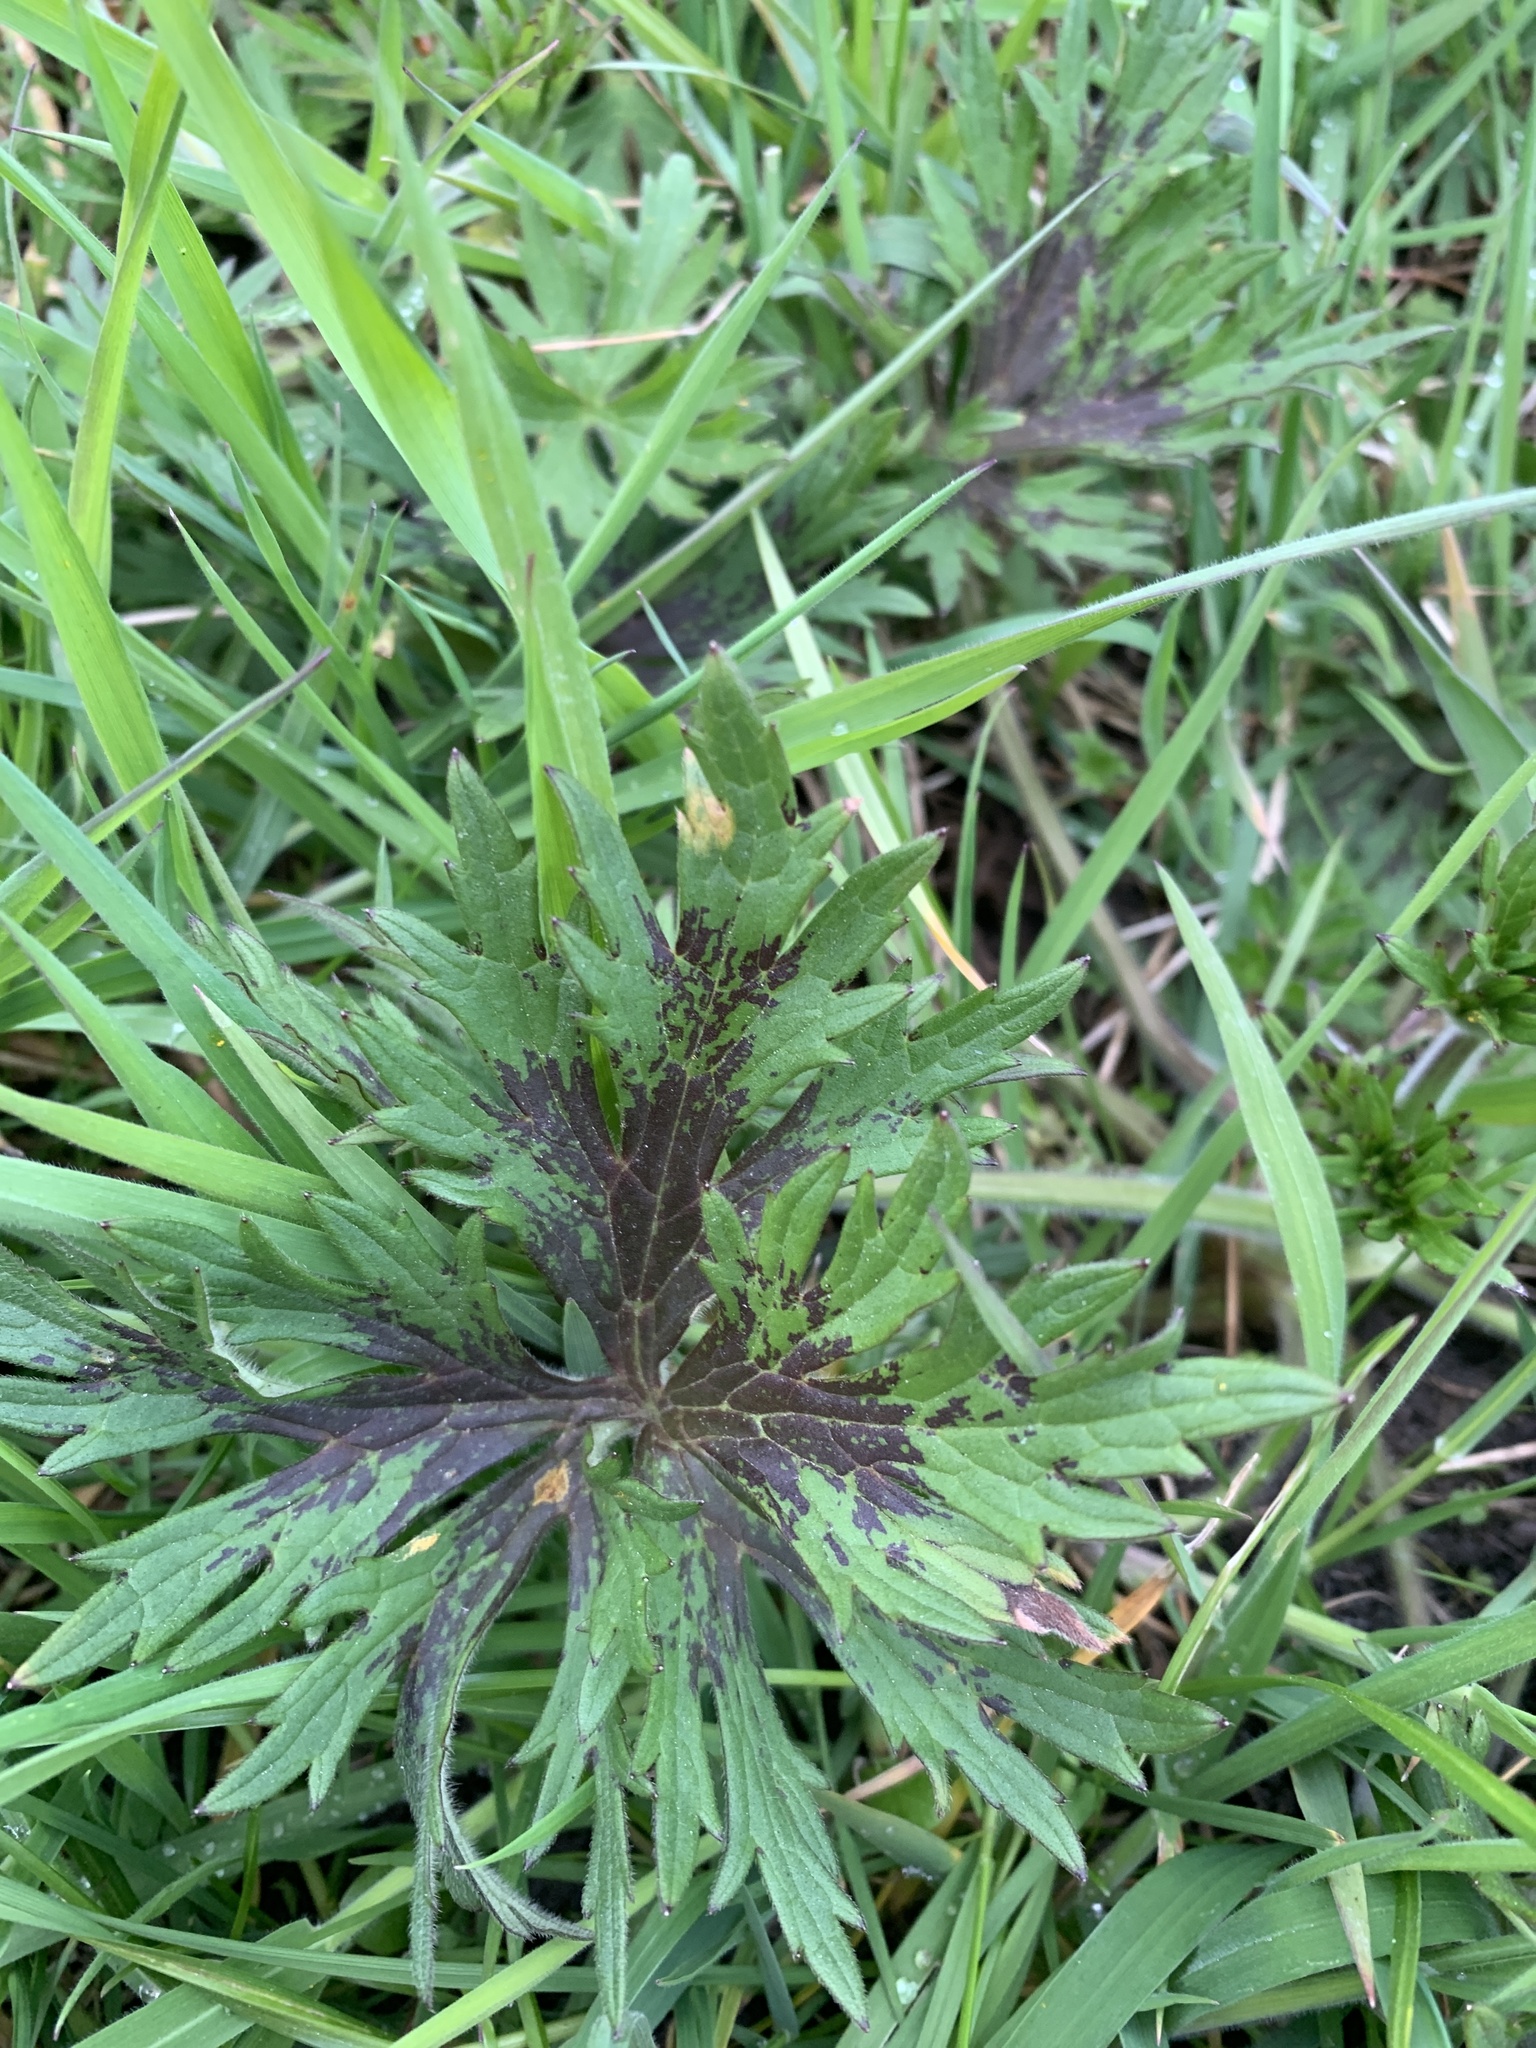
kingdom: Plantae
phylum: Tracheophyta
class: Magnoliopsida
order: Ranunculales
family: Ranunculaceae
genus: Ranunculus
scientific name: Ranunculus acris
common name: Meadow buttercup
